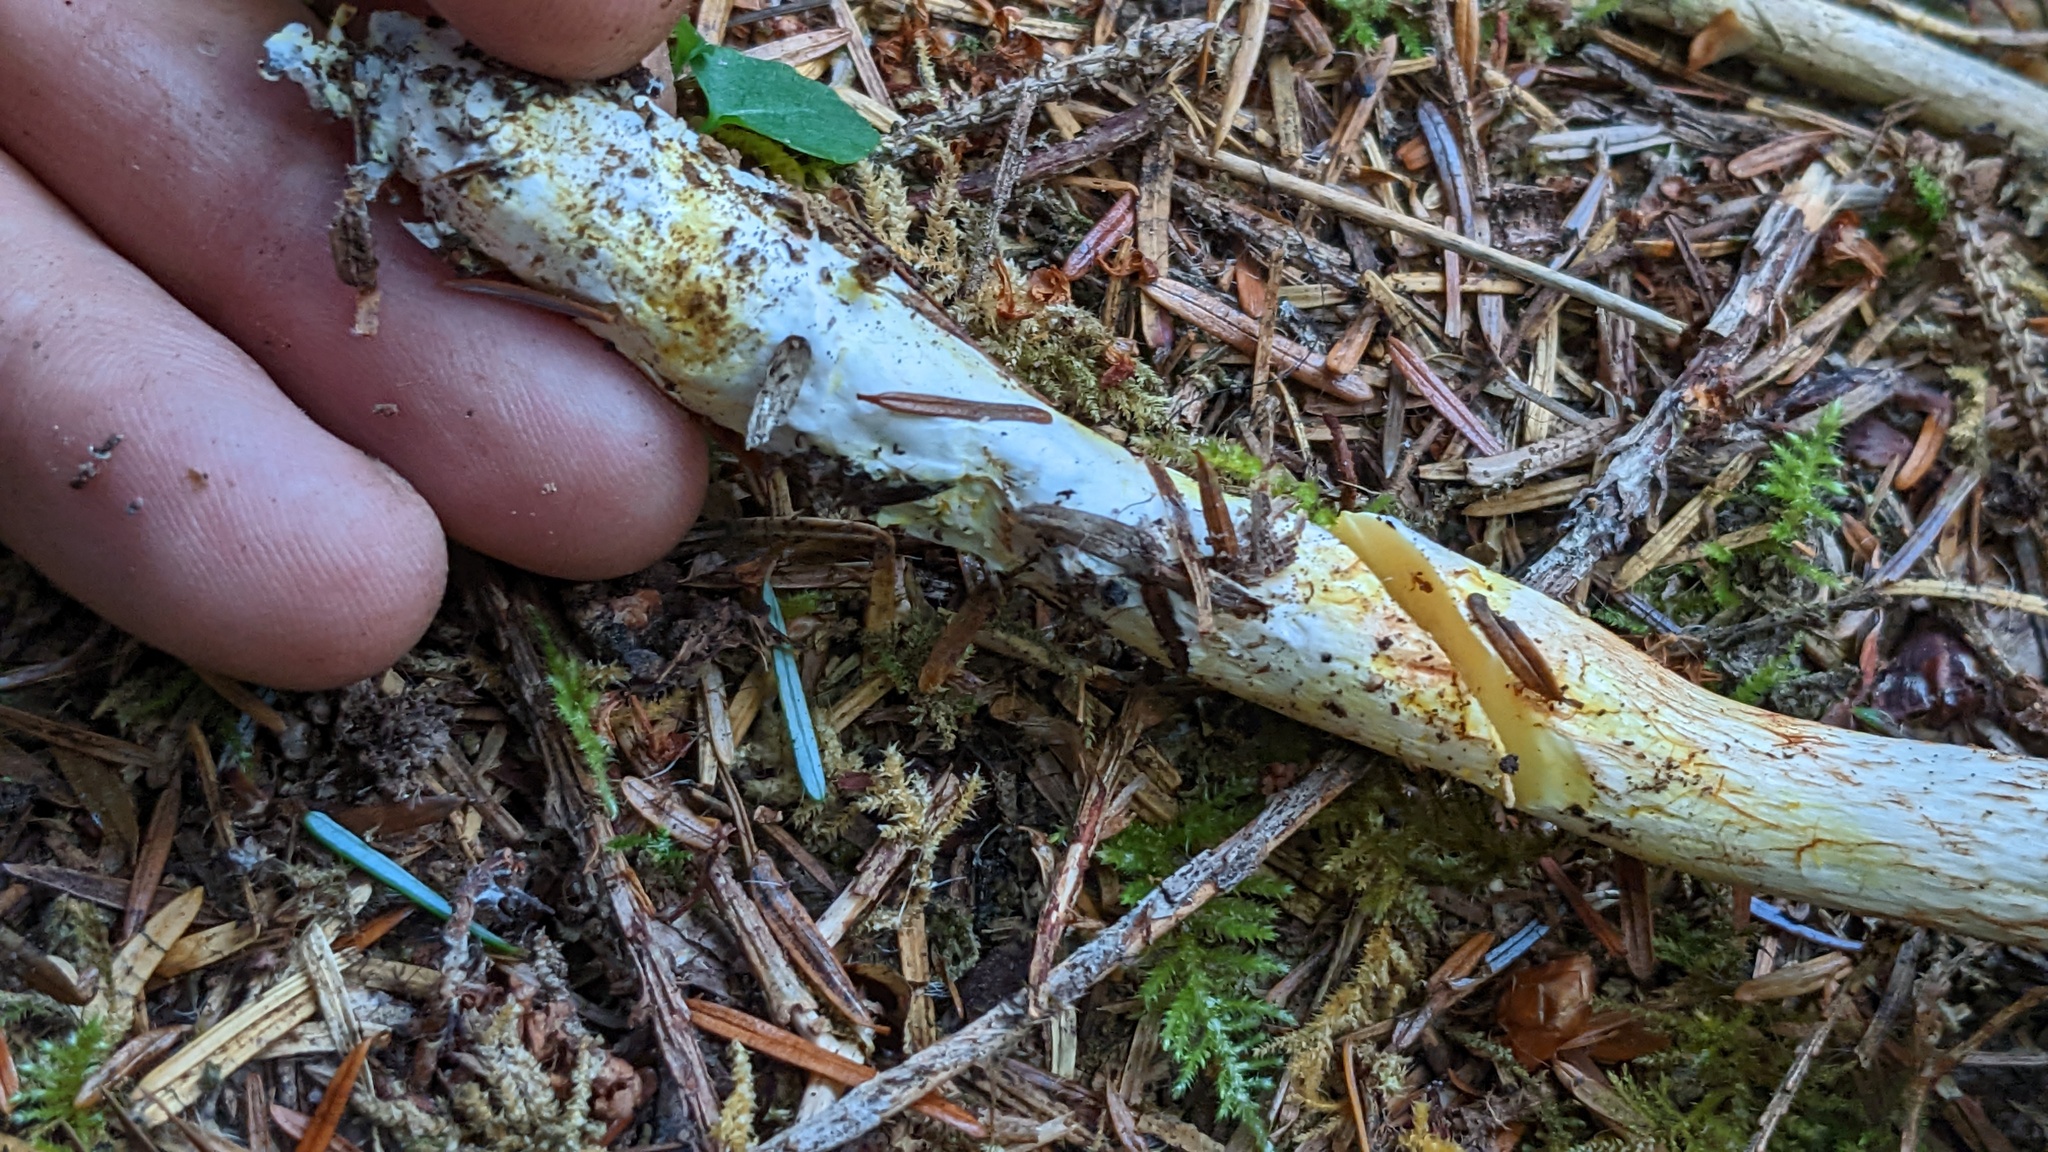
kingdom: Fungi
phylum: Basidiomycota
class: Agaricomycetes
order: Agaricales
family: Cortinariaceae
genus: Cystinarius
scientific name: Cystinarius rubiginosus
